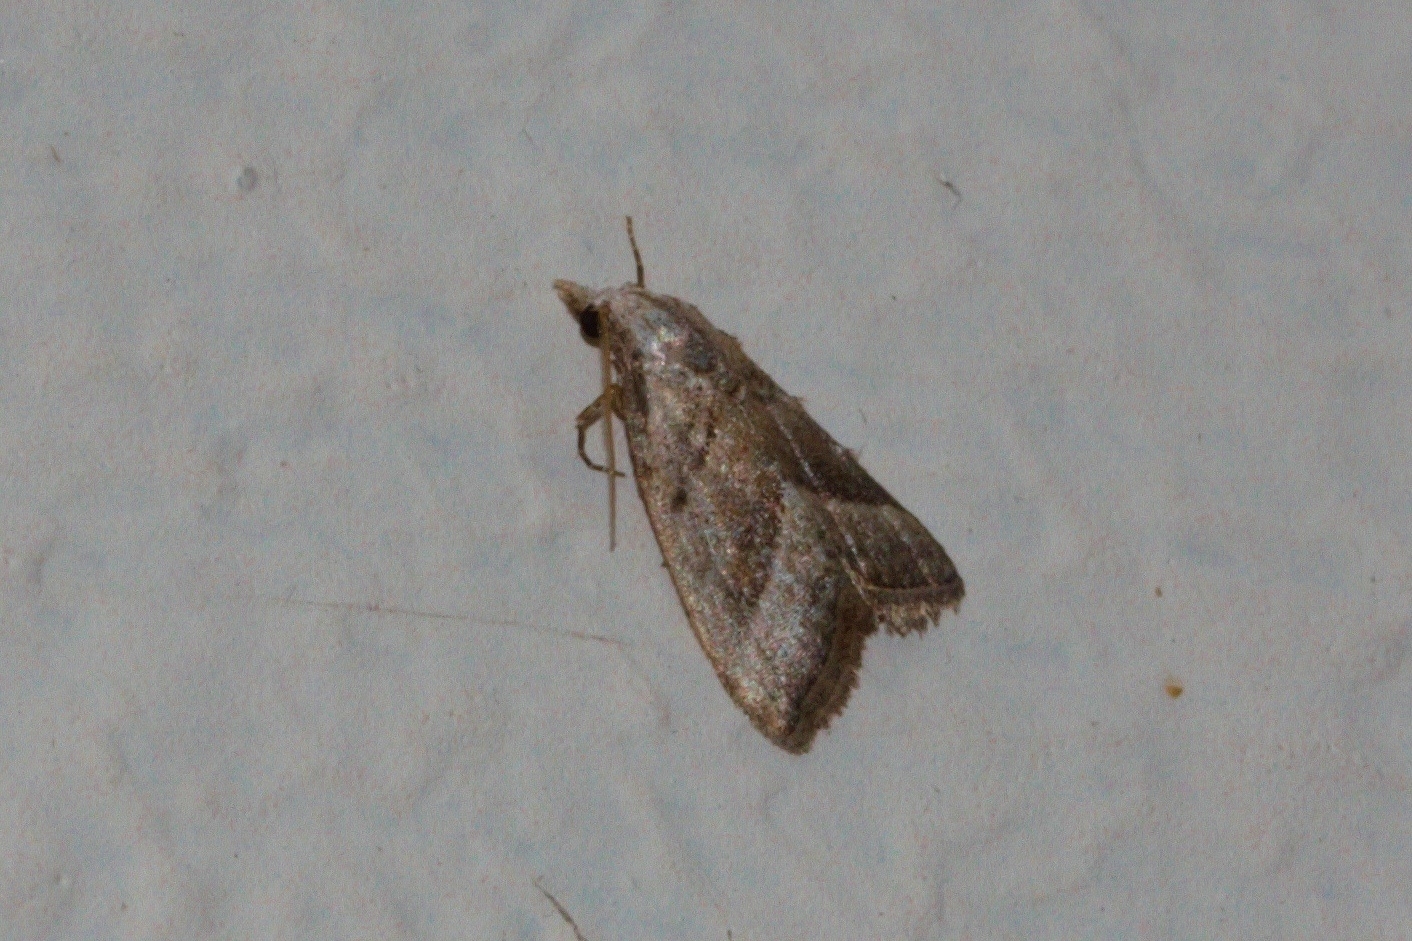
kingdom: Animalia
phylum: Arthropoda
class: Insecta
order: Lepidoptera
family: Nolidae
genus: Nola
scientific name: Nola imitata
